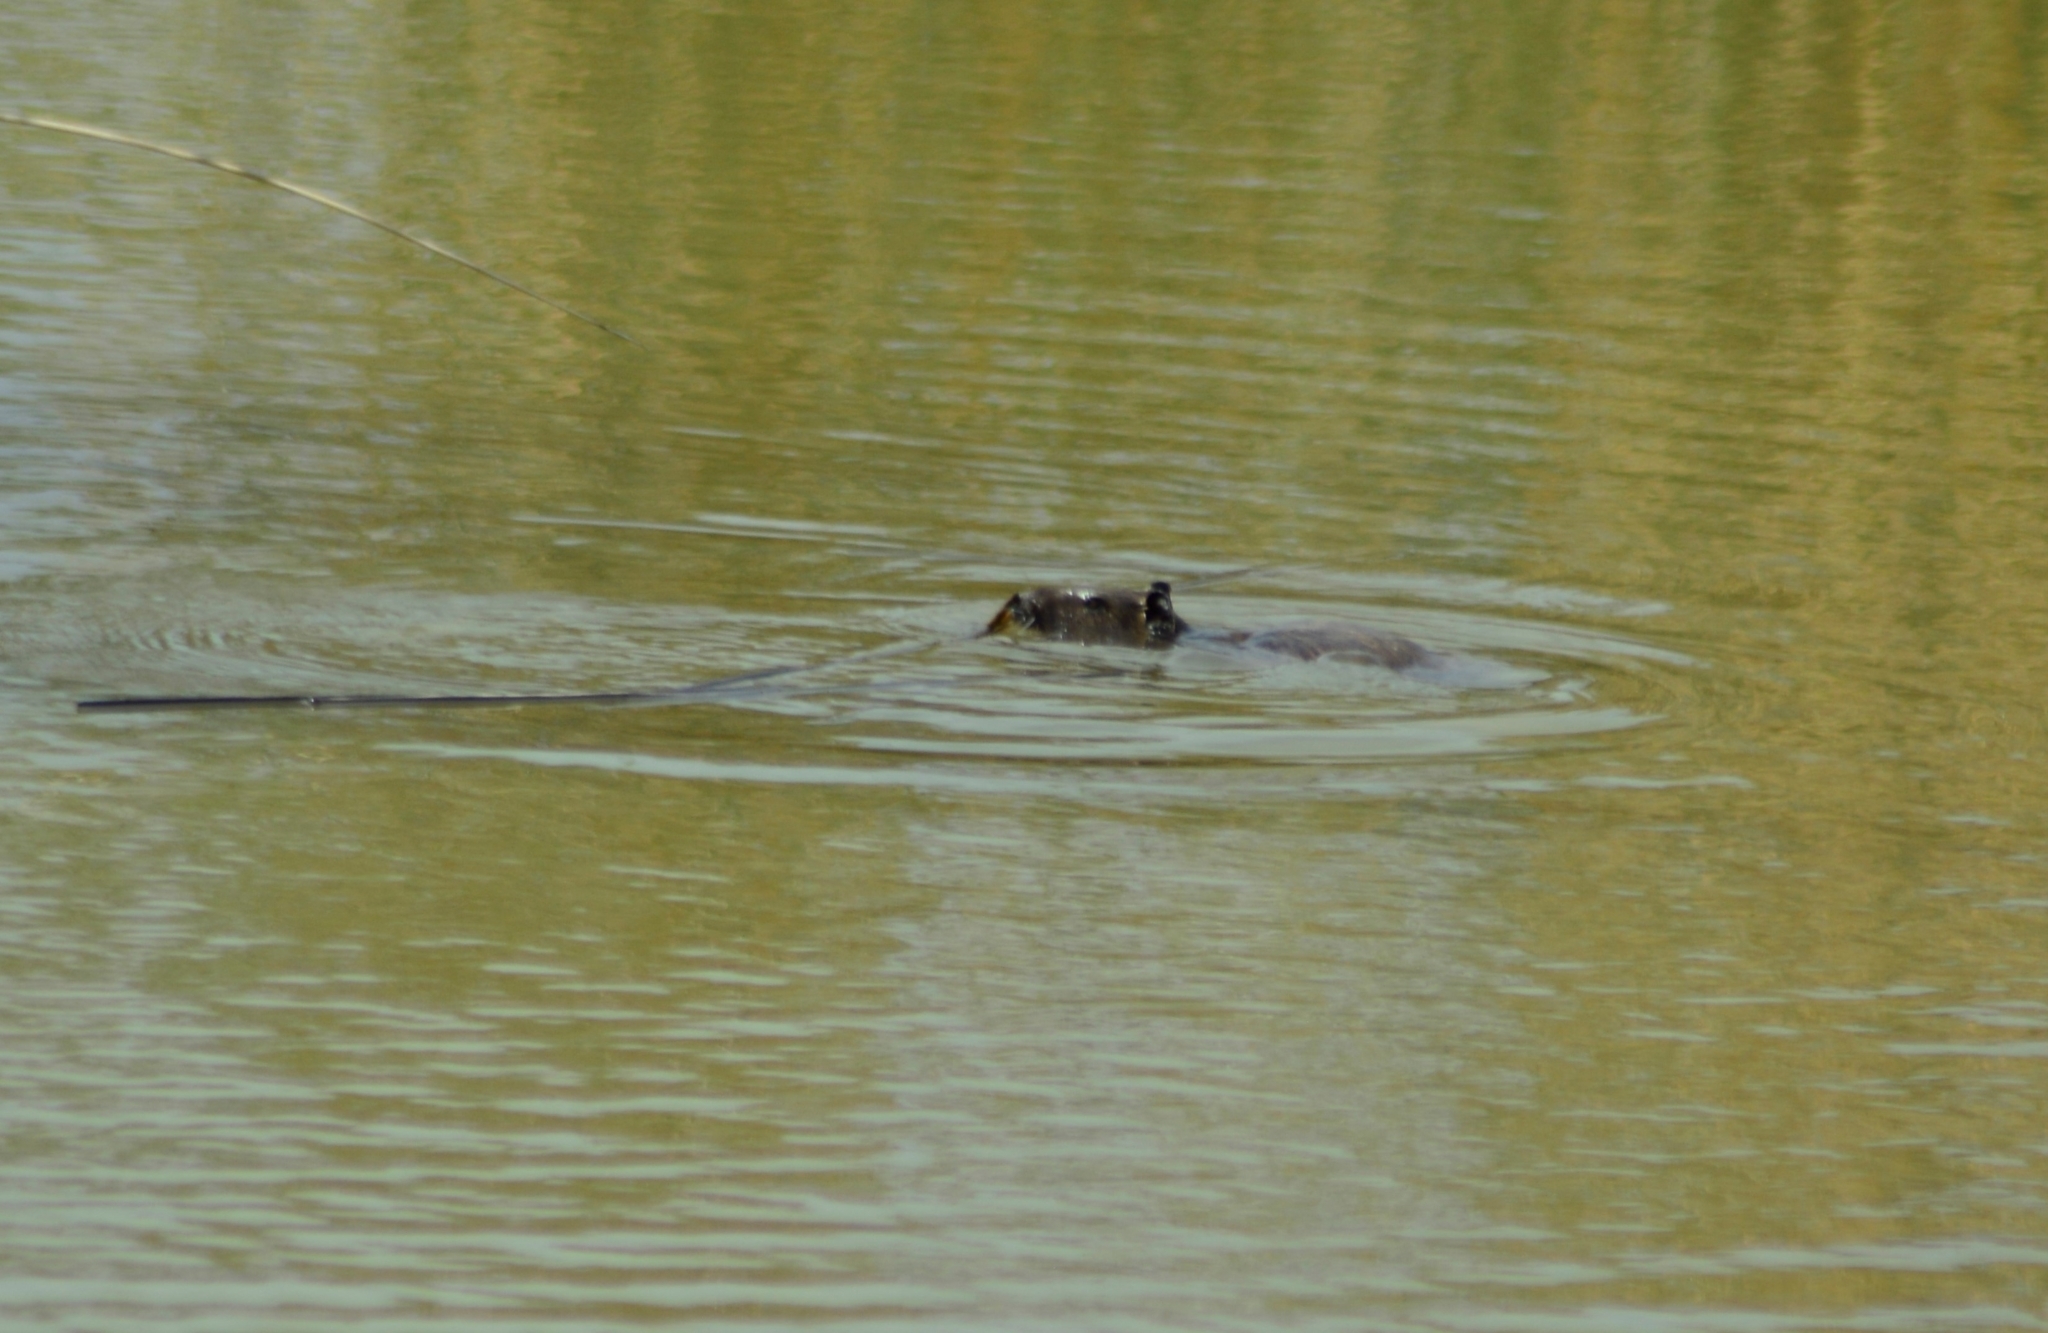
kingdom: Animalia
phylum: Chordata
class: Mammalia
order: Rodentia
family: Myocastoridae
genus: Myocastor
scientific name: Myocastor coypus
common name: Coypu
